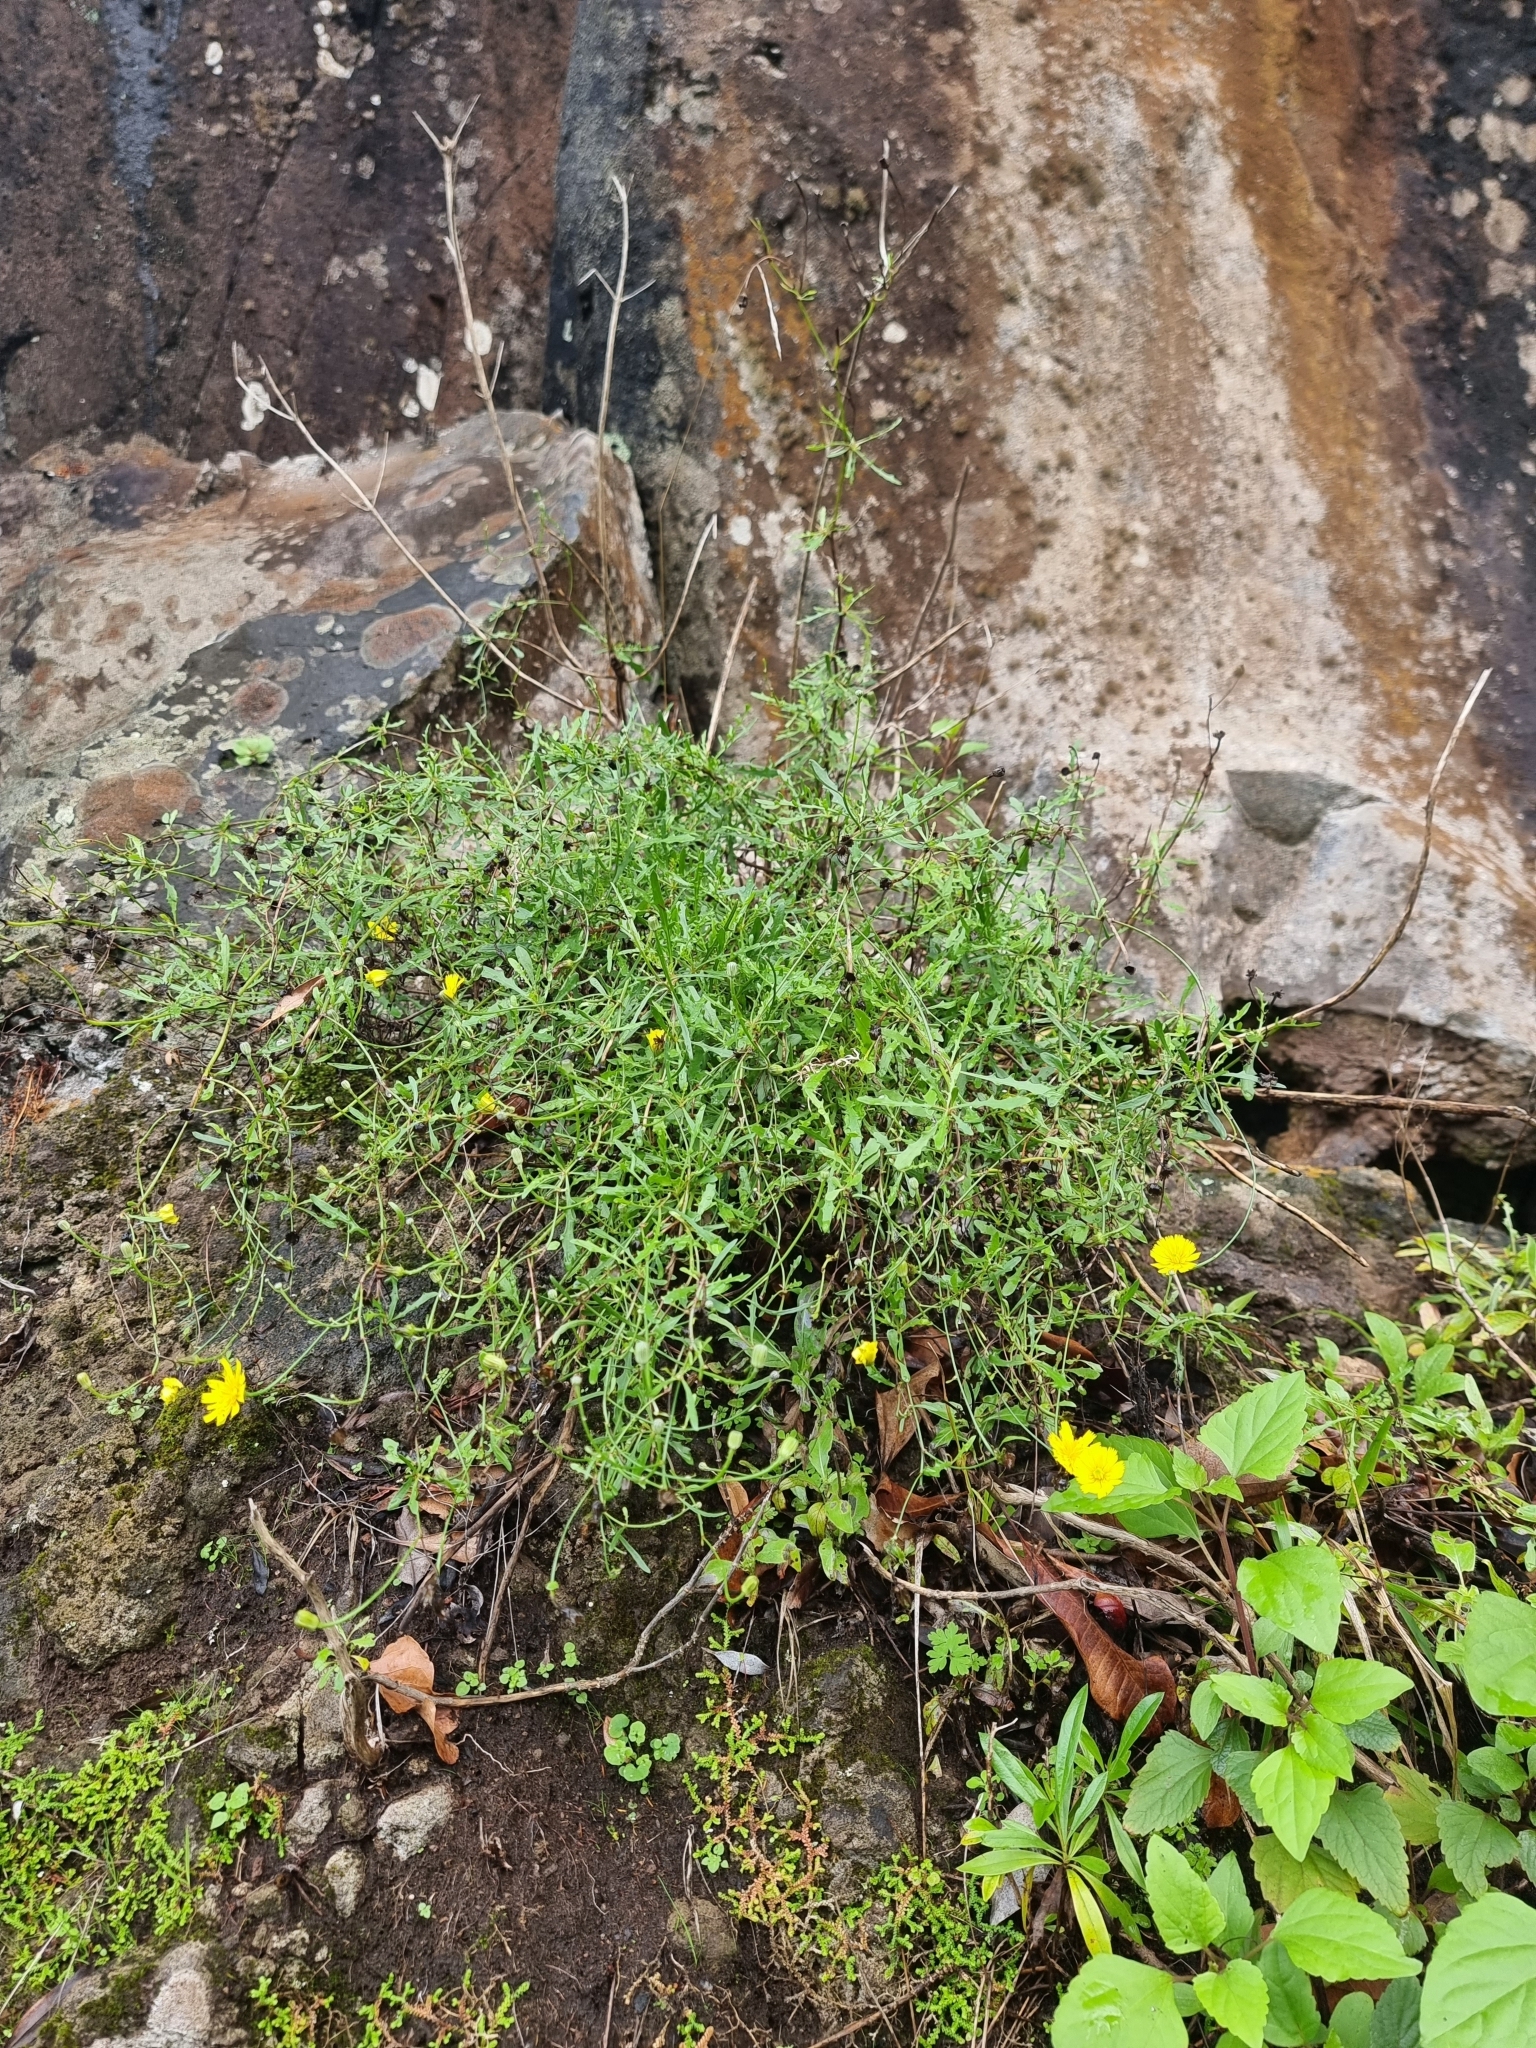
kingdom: Plantae
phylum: Tracheophyta
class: Magnoliopsida
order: Asterales
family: Asteraceae
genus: Tolpis
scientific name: Tolpis succulenta
